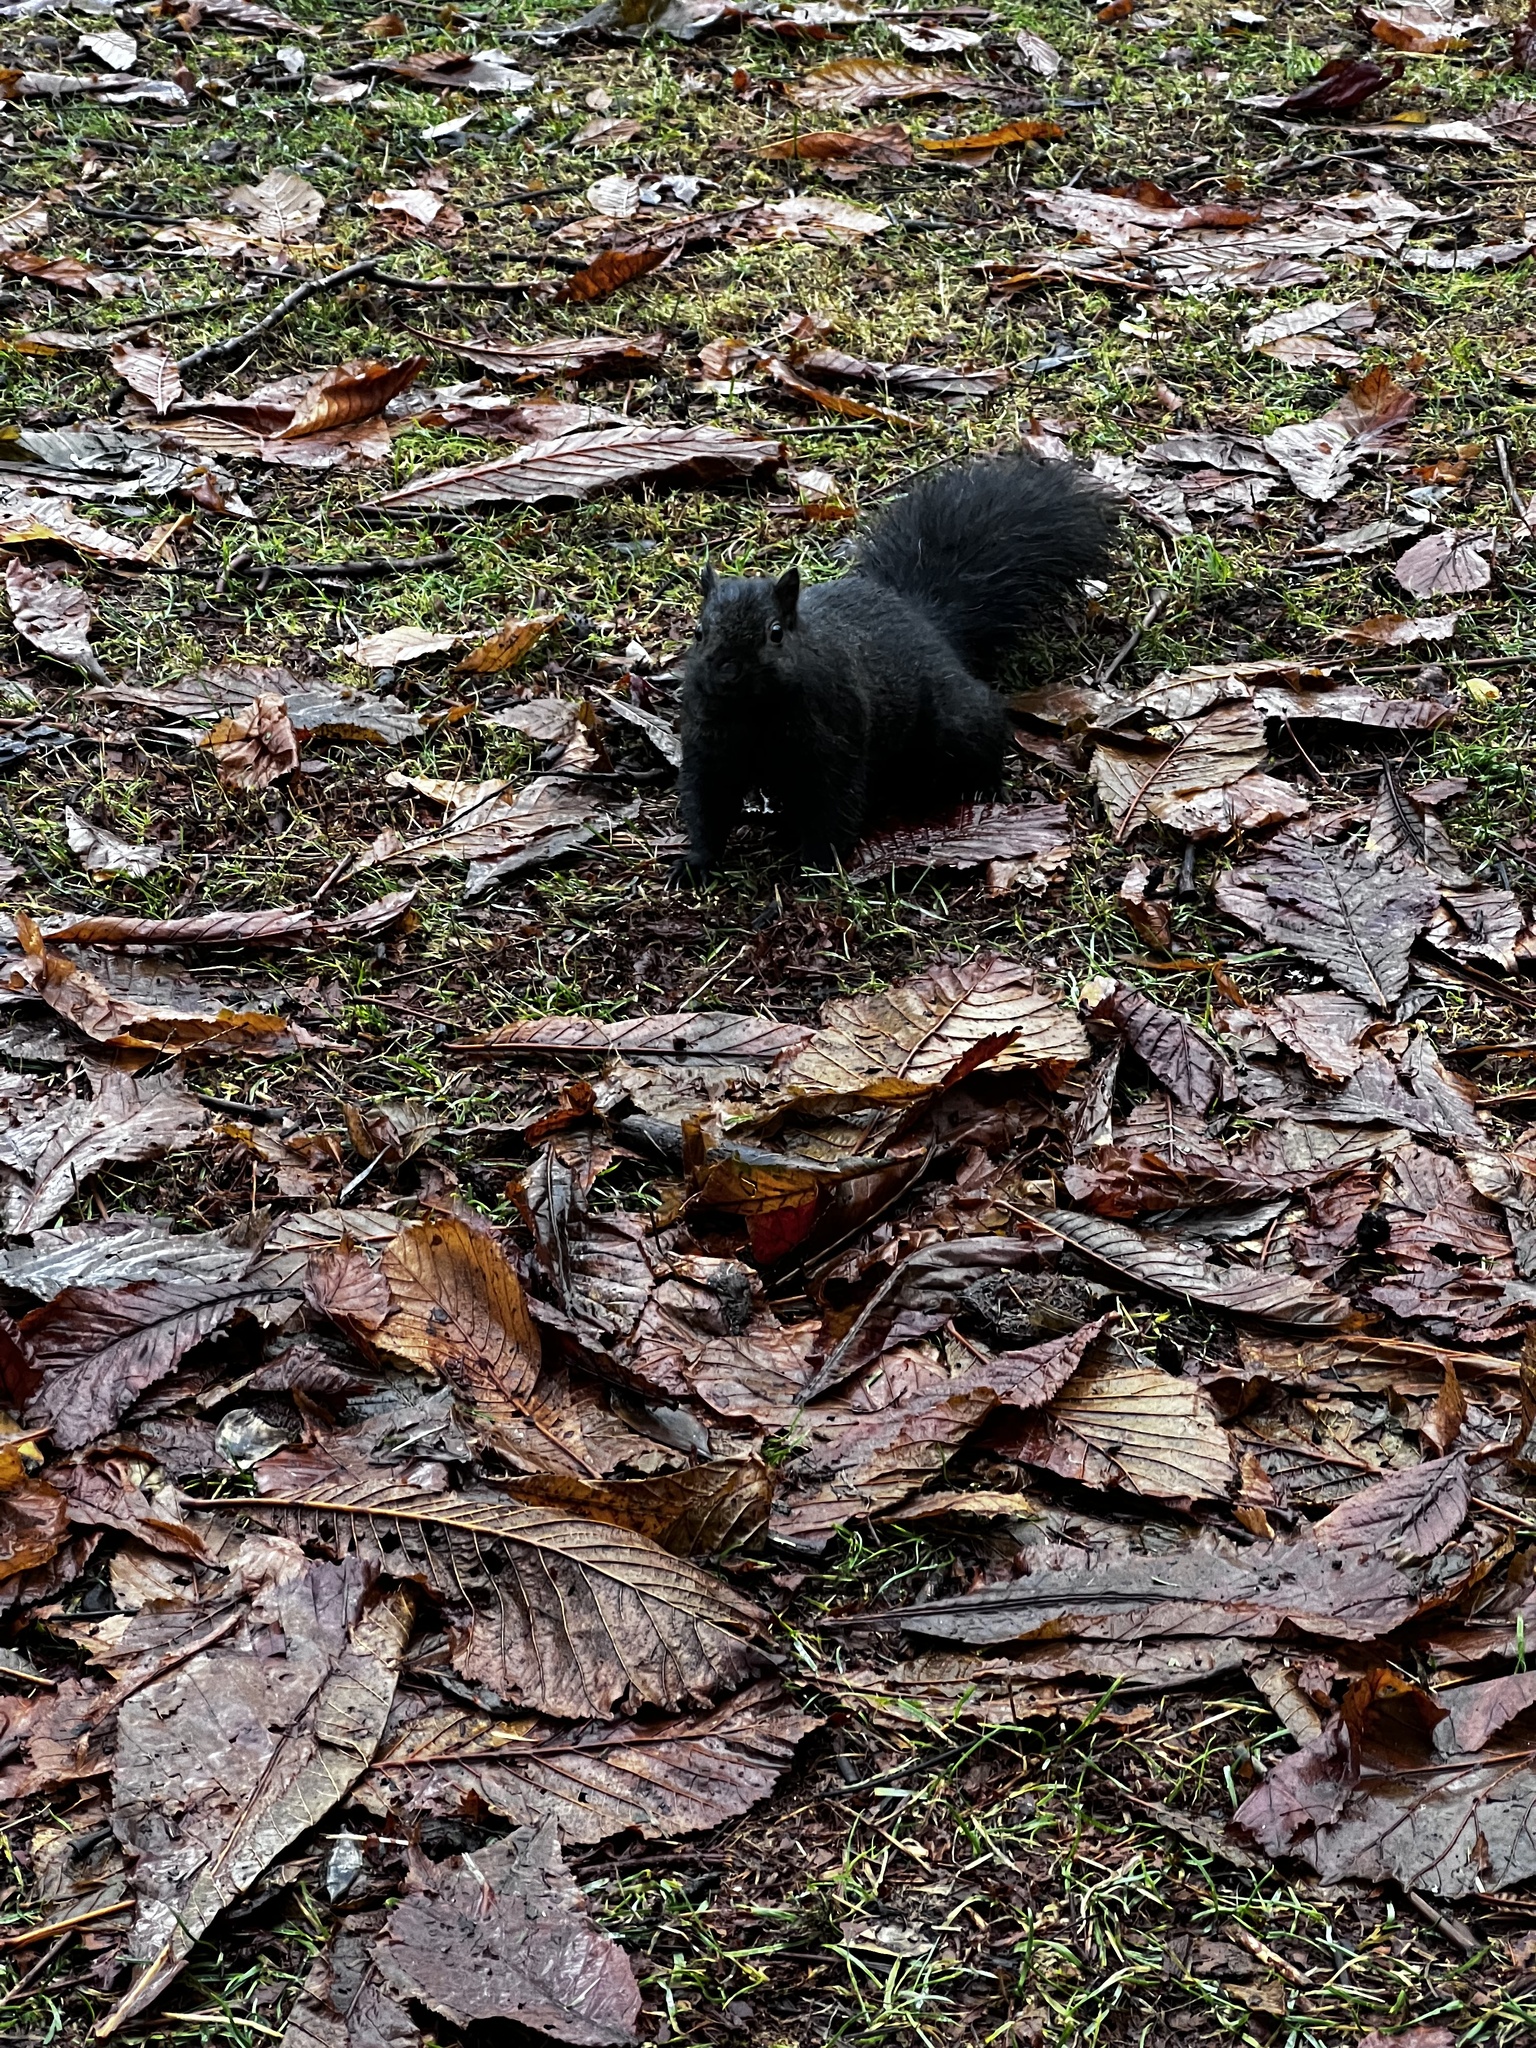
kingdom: Animalia
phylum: Chordata
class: Mammalia
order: Rodentia
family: Sciuridae
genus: Sciurus
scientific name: Sciurus carolinensis
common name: Eastern gray squirrel
